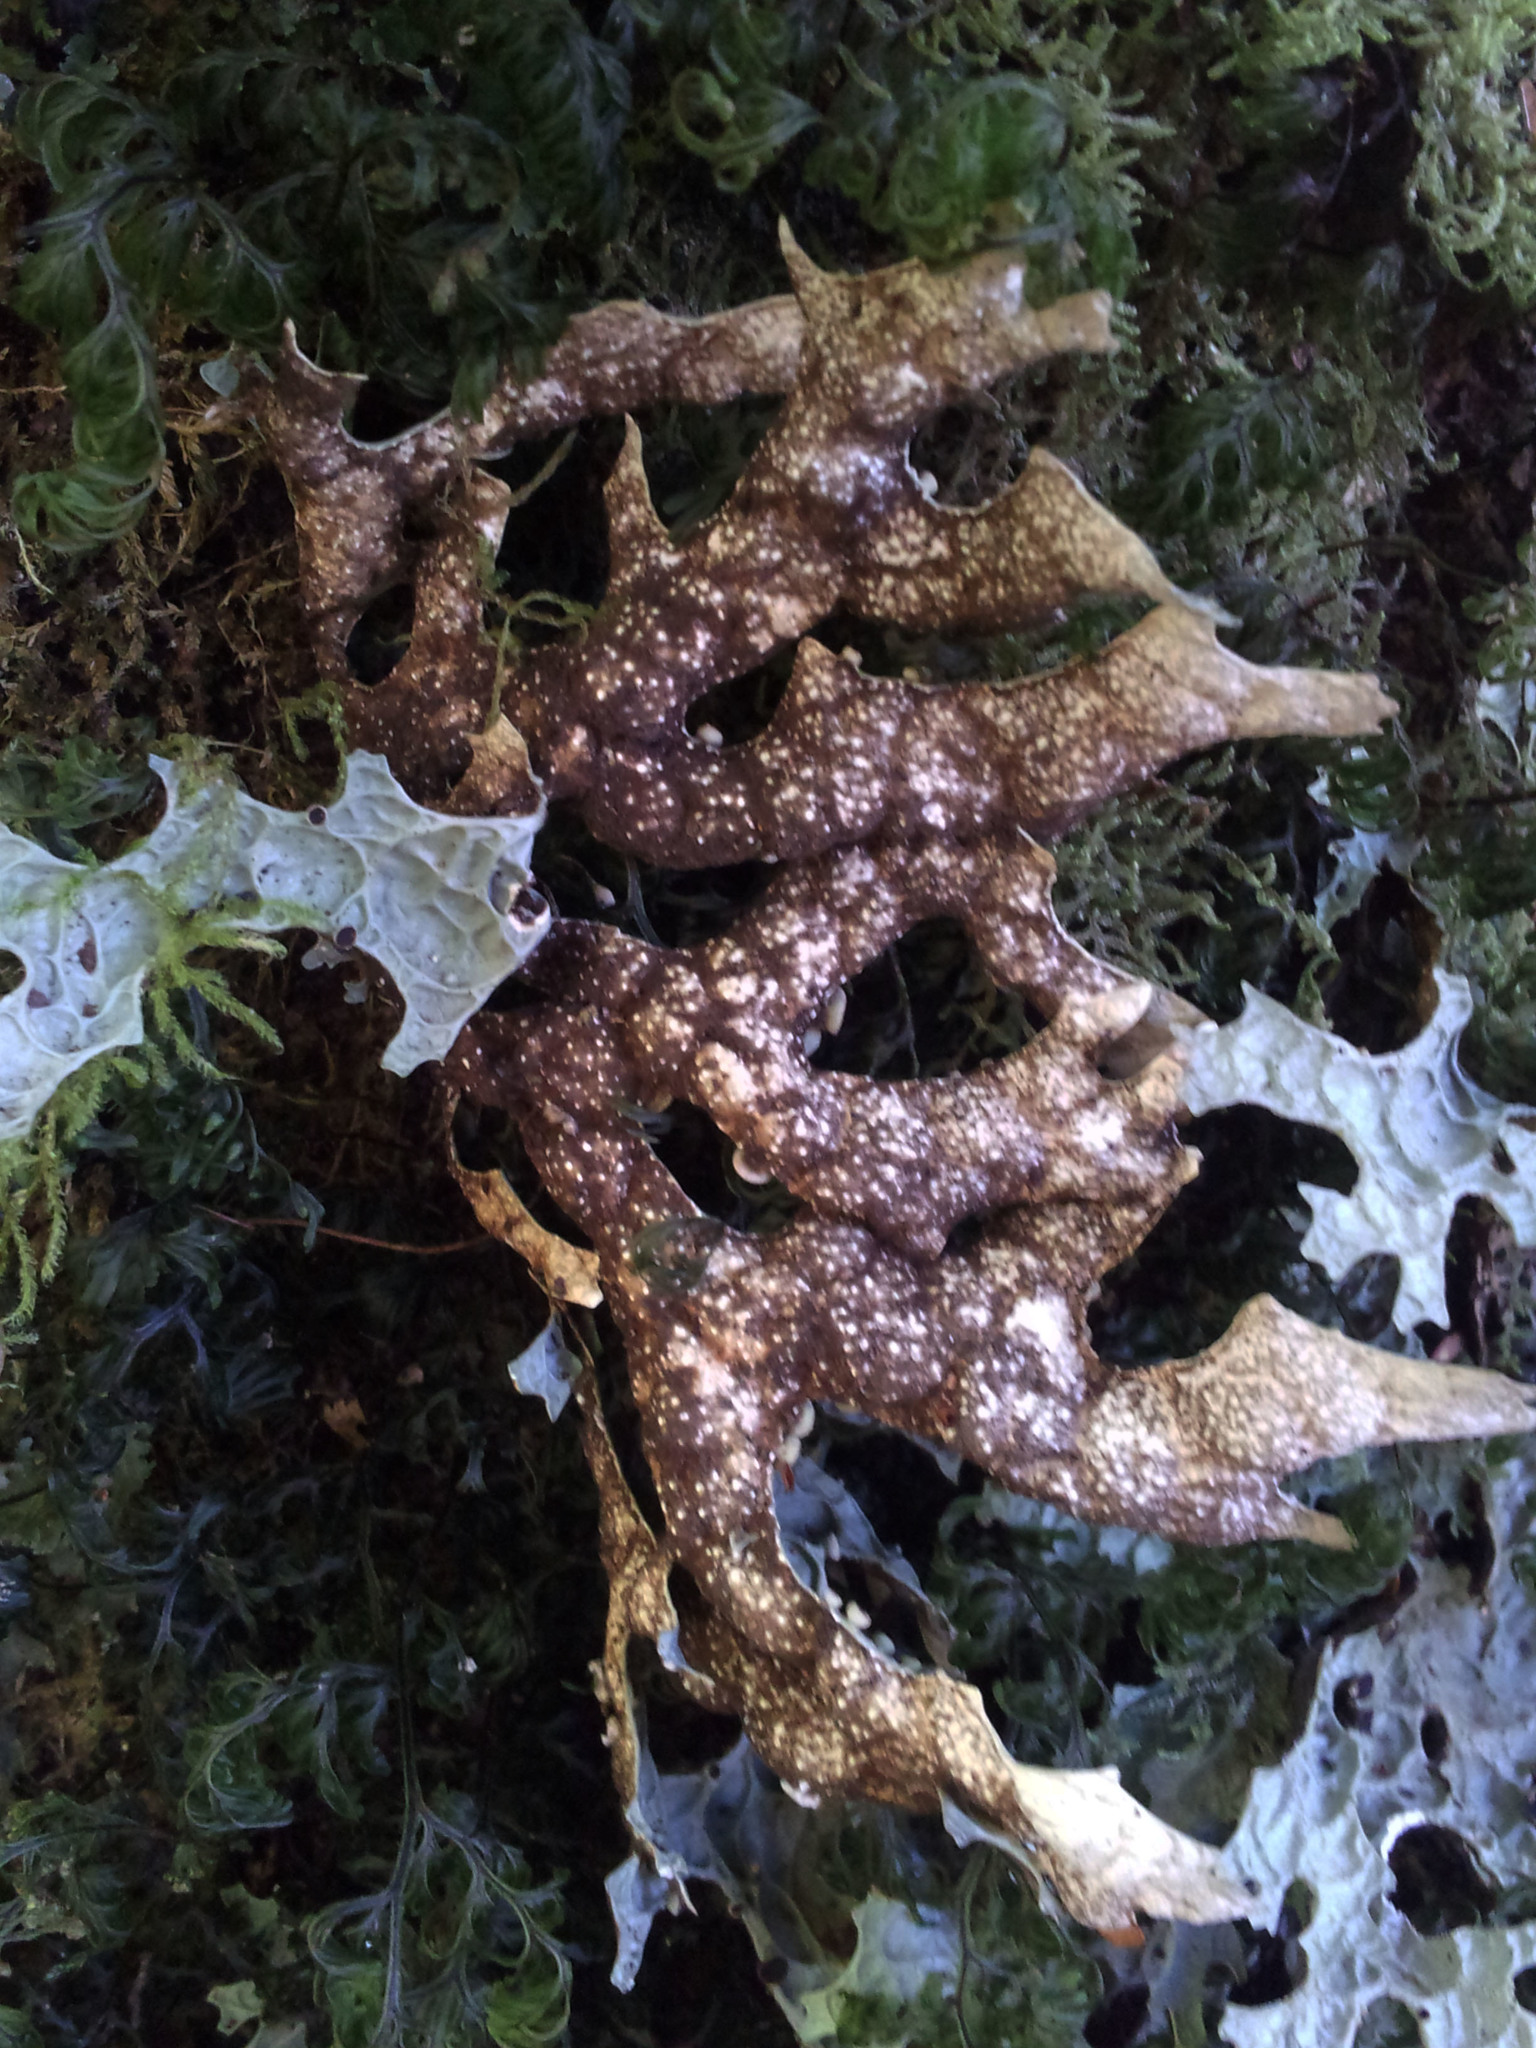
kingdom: Fungi
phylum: Ascomycota
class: Lecanoromycetes
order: Peltigerales
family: Lobariaceae
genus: Pseudocyphellaria
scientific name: Pseudocyphellaria billardierei
